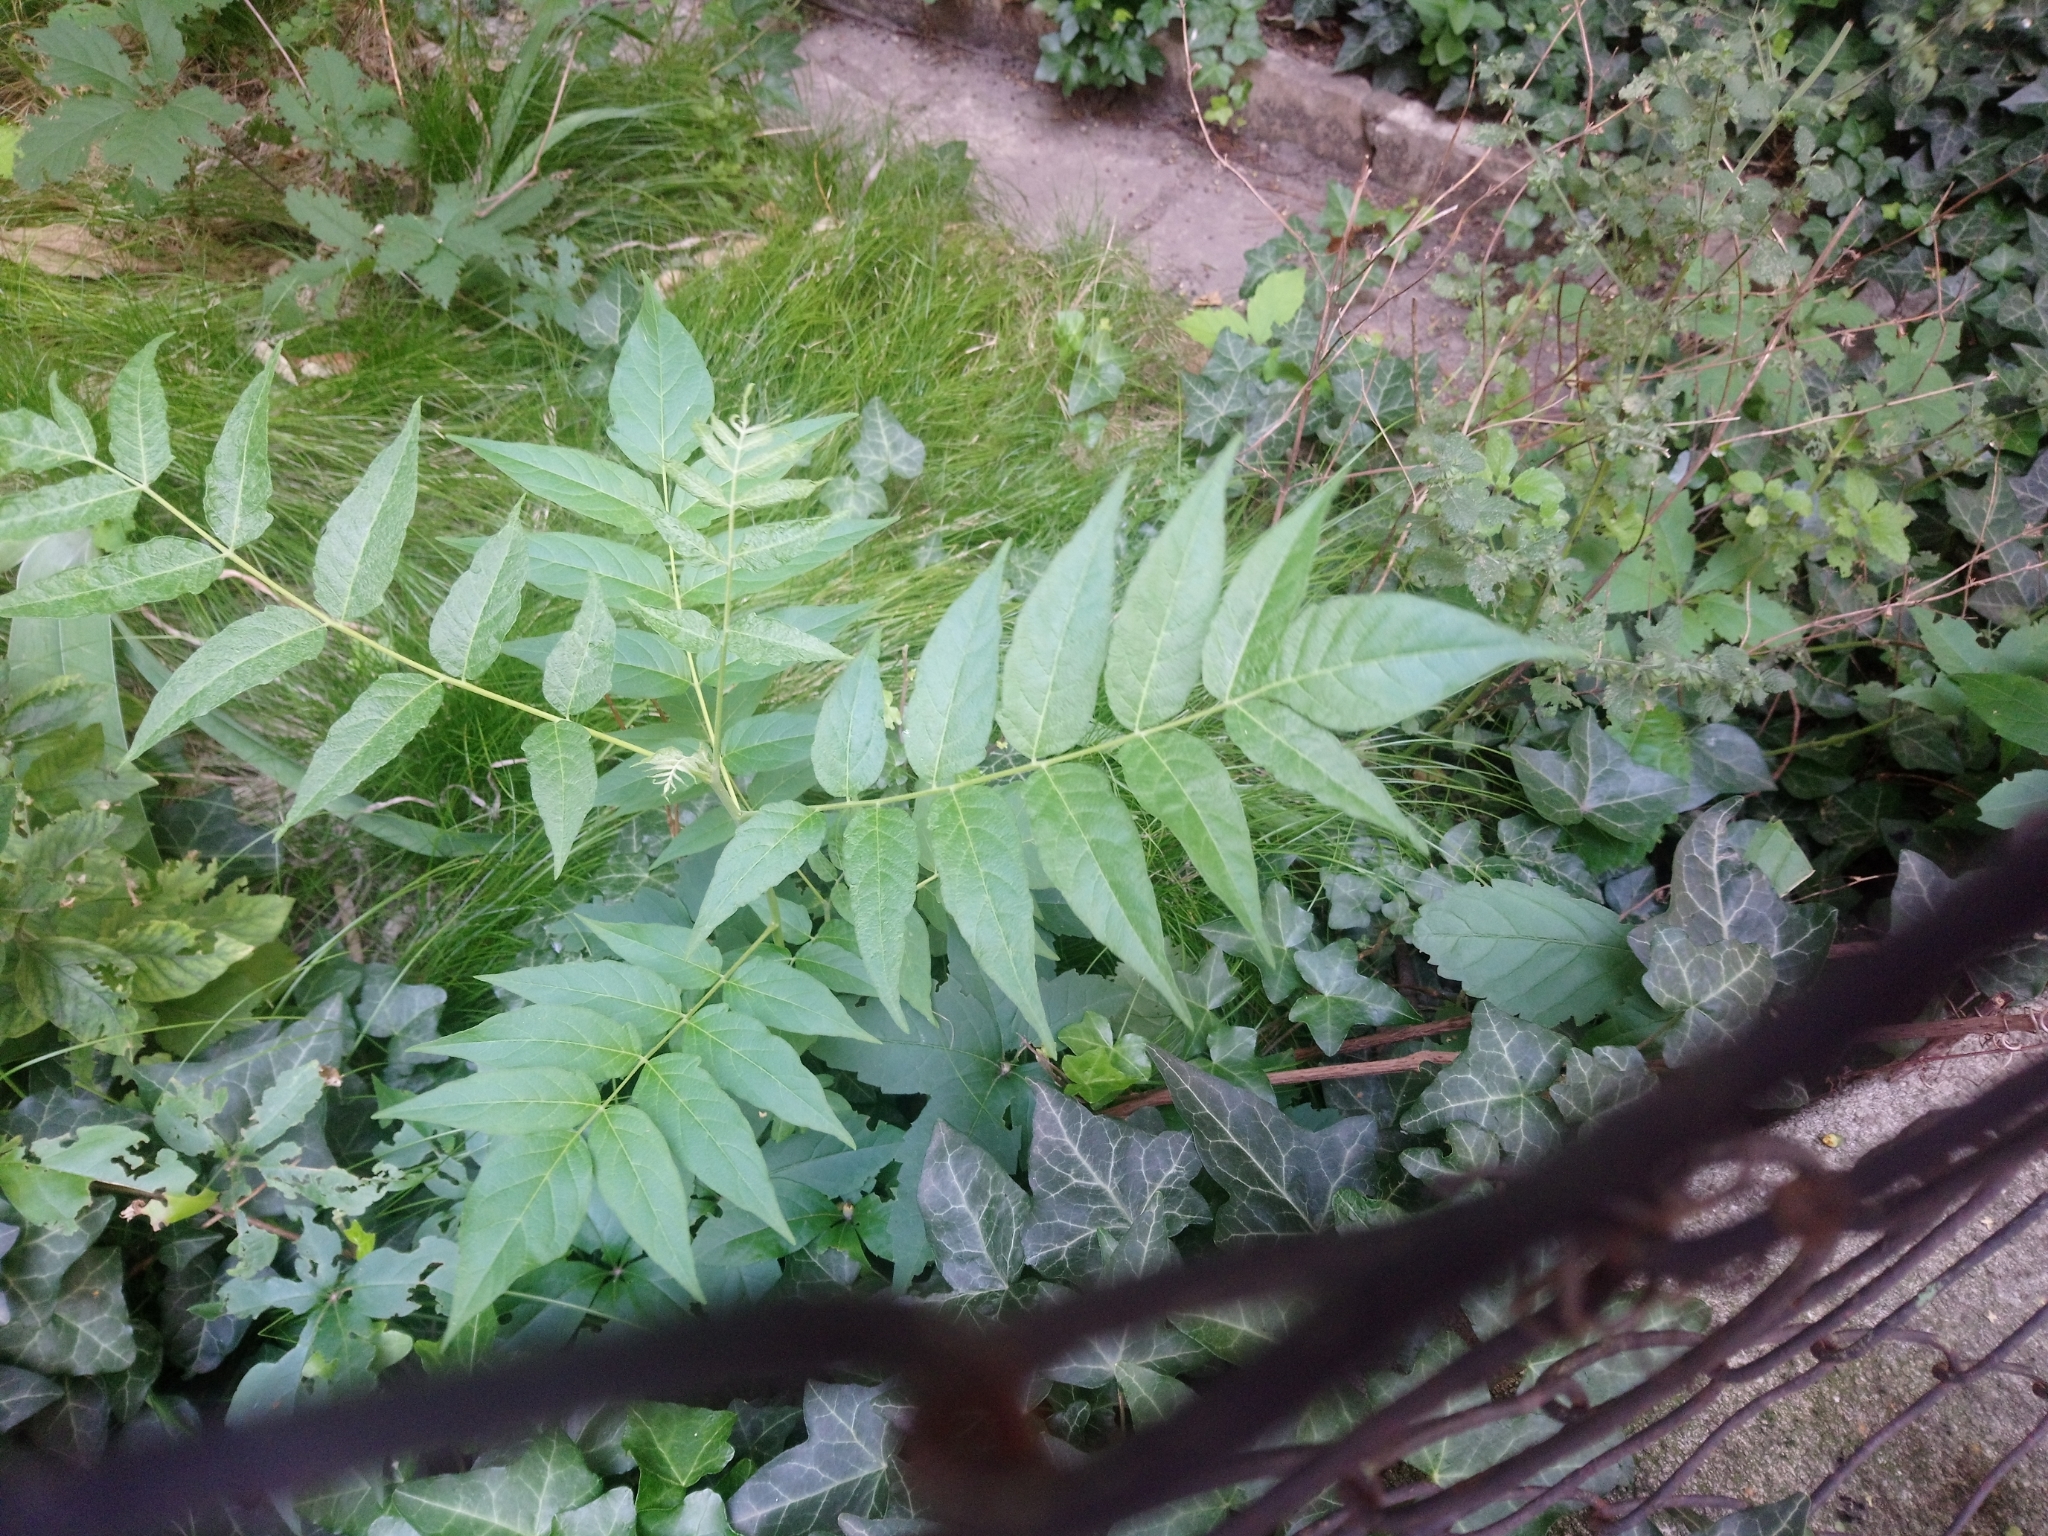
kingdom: Plantae
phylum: Tracheophyta
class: Magnoliopsida
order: Sapindales
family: Simaroubaceae
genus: Ailanthus
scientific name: Ailanthus altissima
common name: Tree-of-heaven
